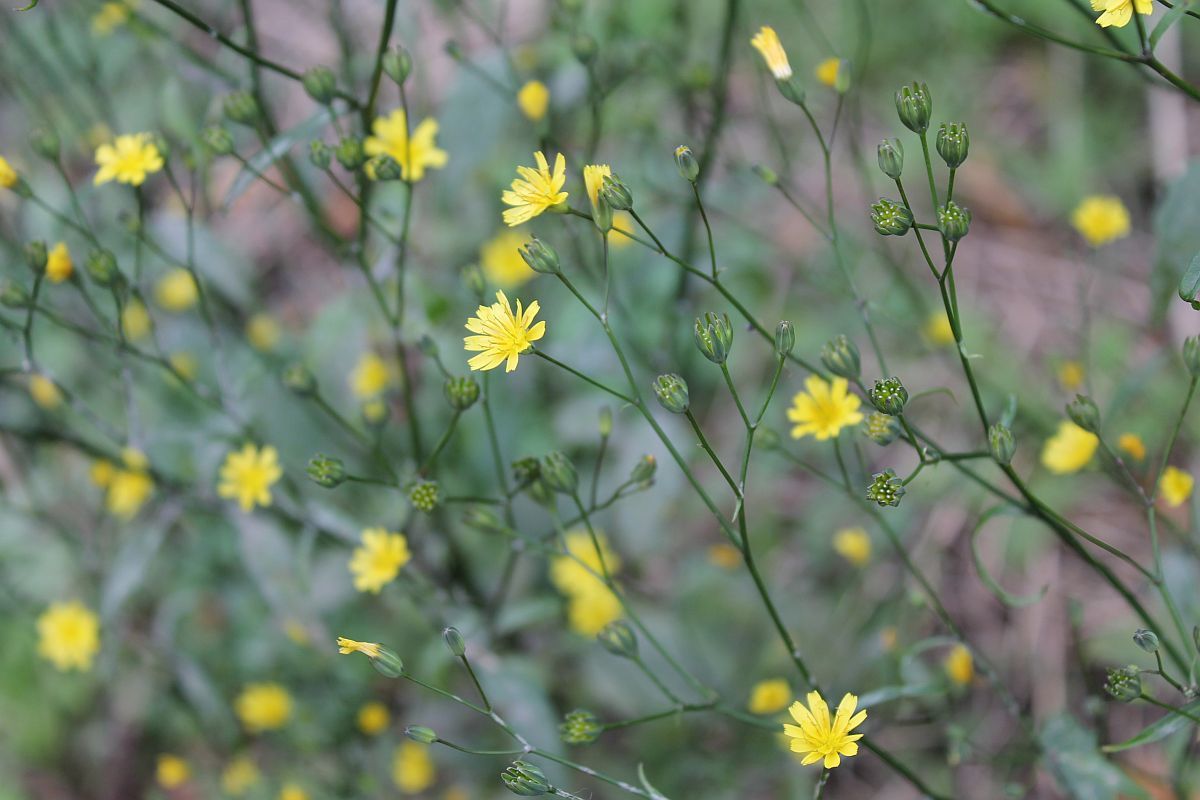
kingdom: Plantae
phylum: Tracheophyta
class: Magnoliopsida
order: Asterales
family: Asteraceae
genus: Lapsana
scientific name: Lapsana communis
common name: Nipplewort
